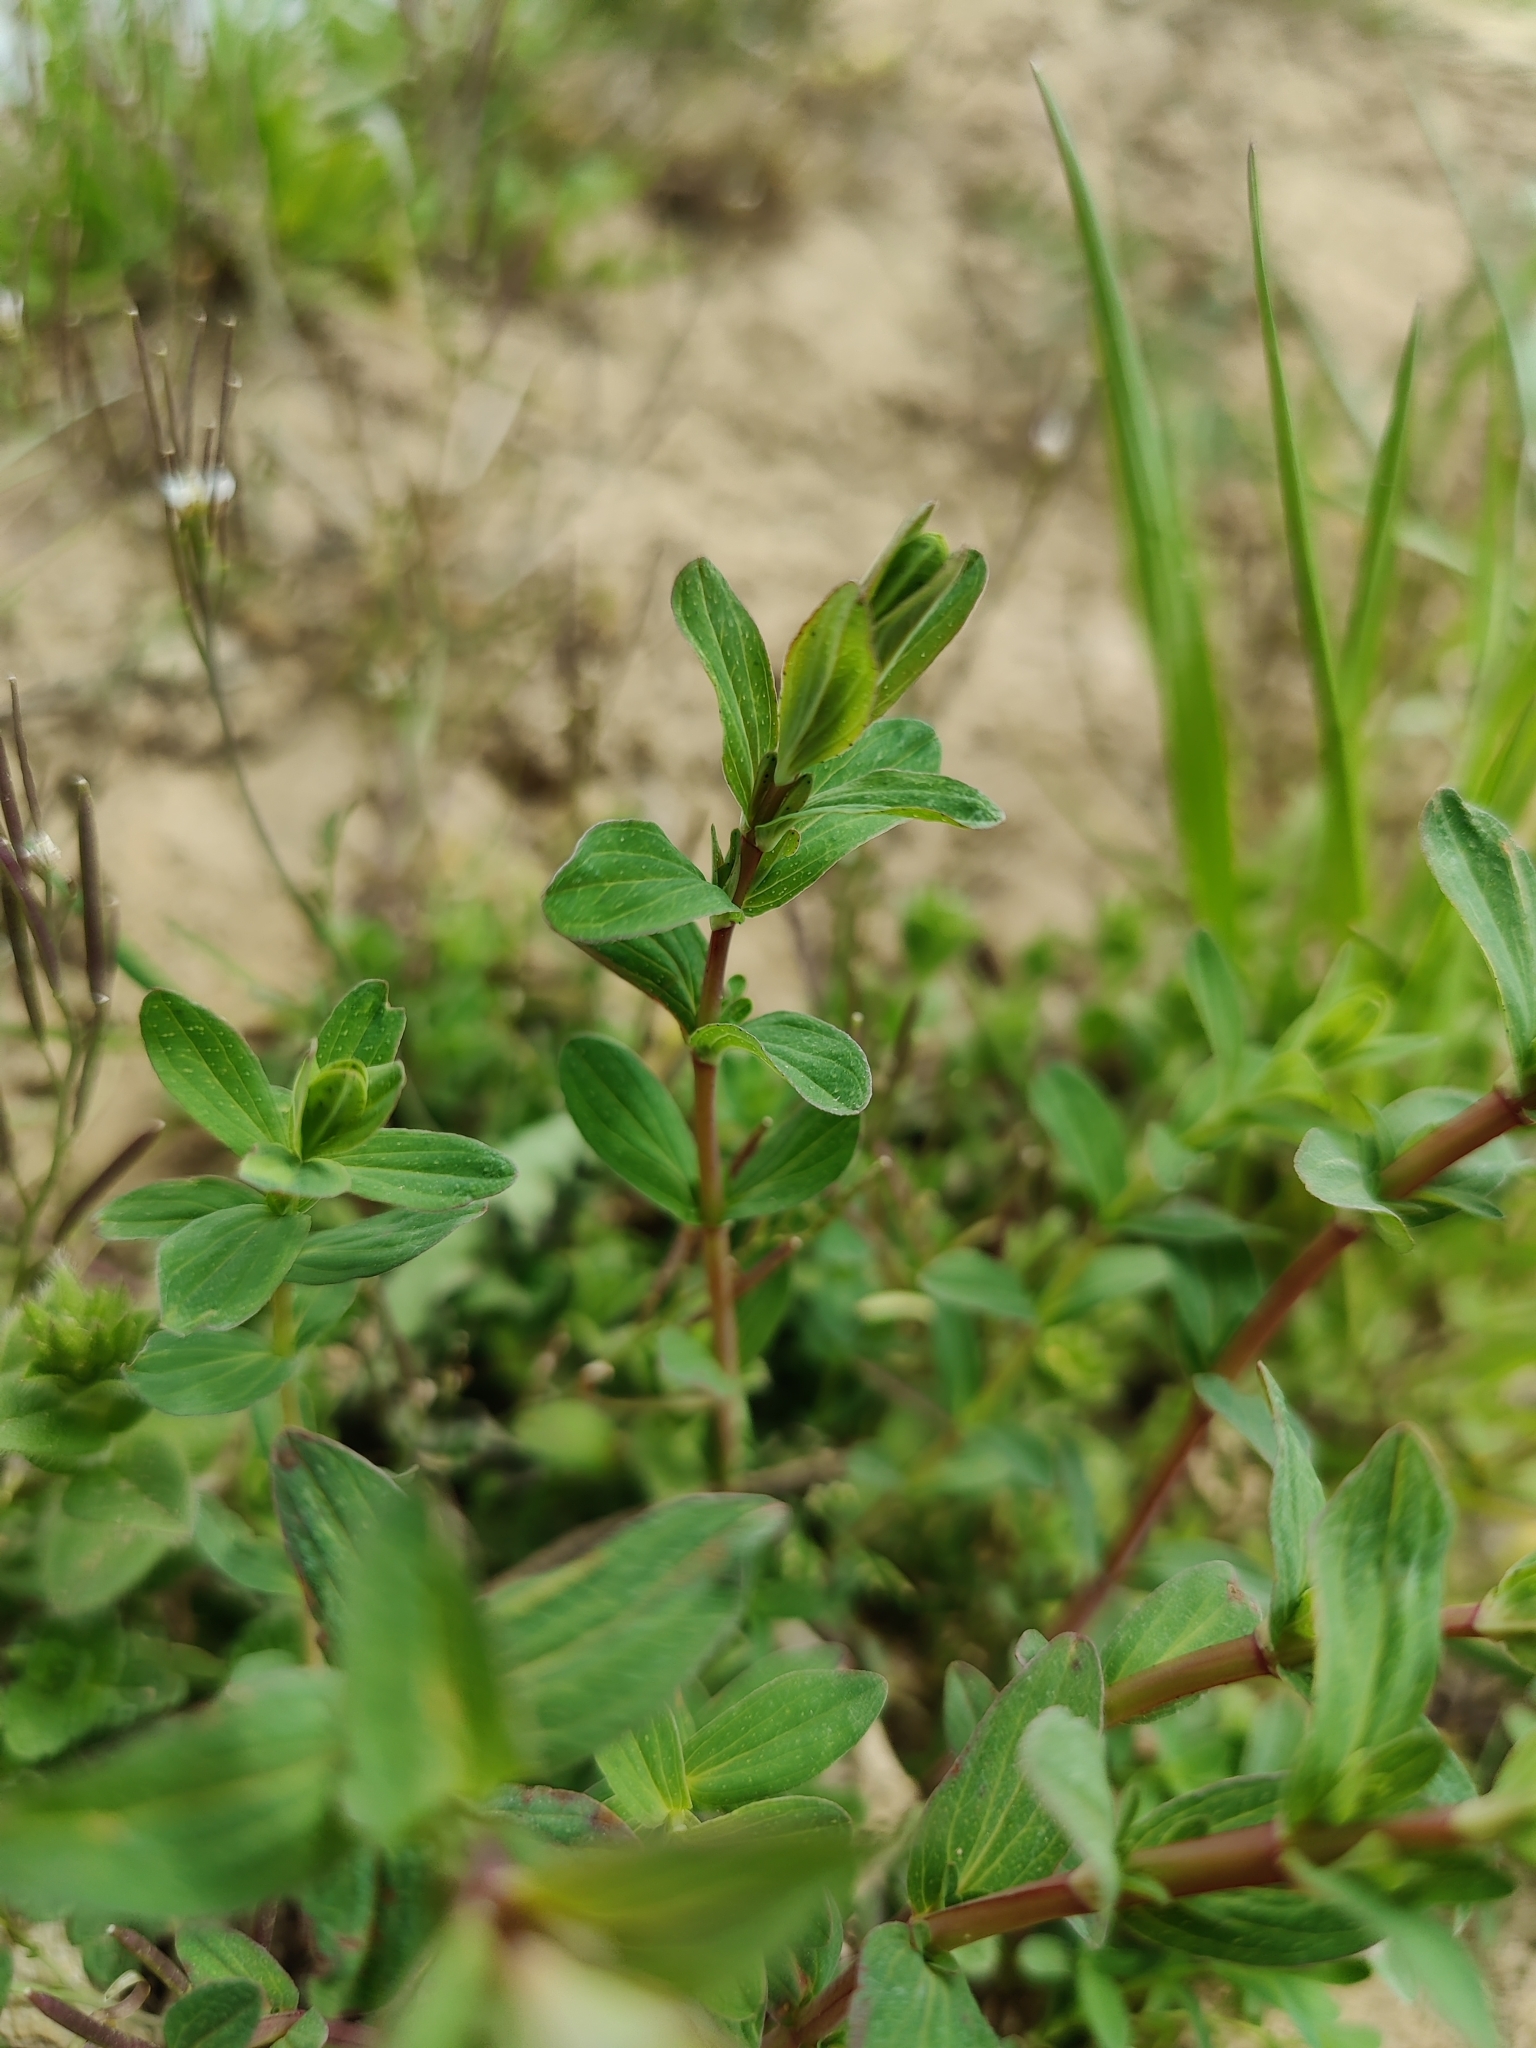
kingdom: Plantae
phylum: Tracheophyta
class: Magnoliopsida
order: Malpighiales
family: Hypericaceae
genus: Hypericum
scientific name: Hypericum perforatum
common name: Common st. johnswort
